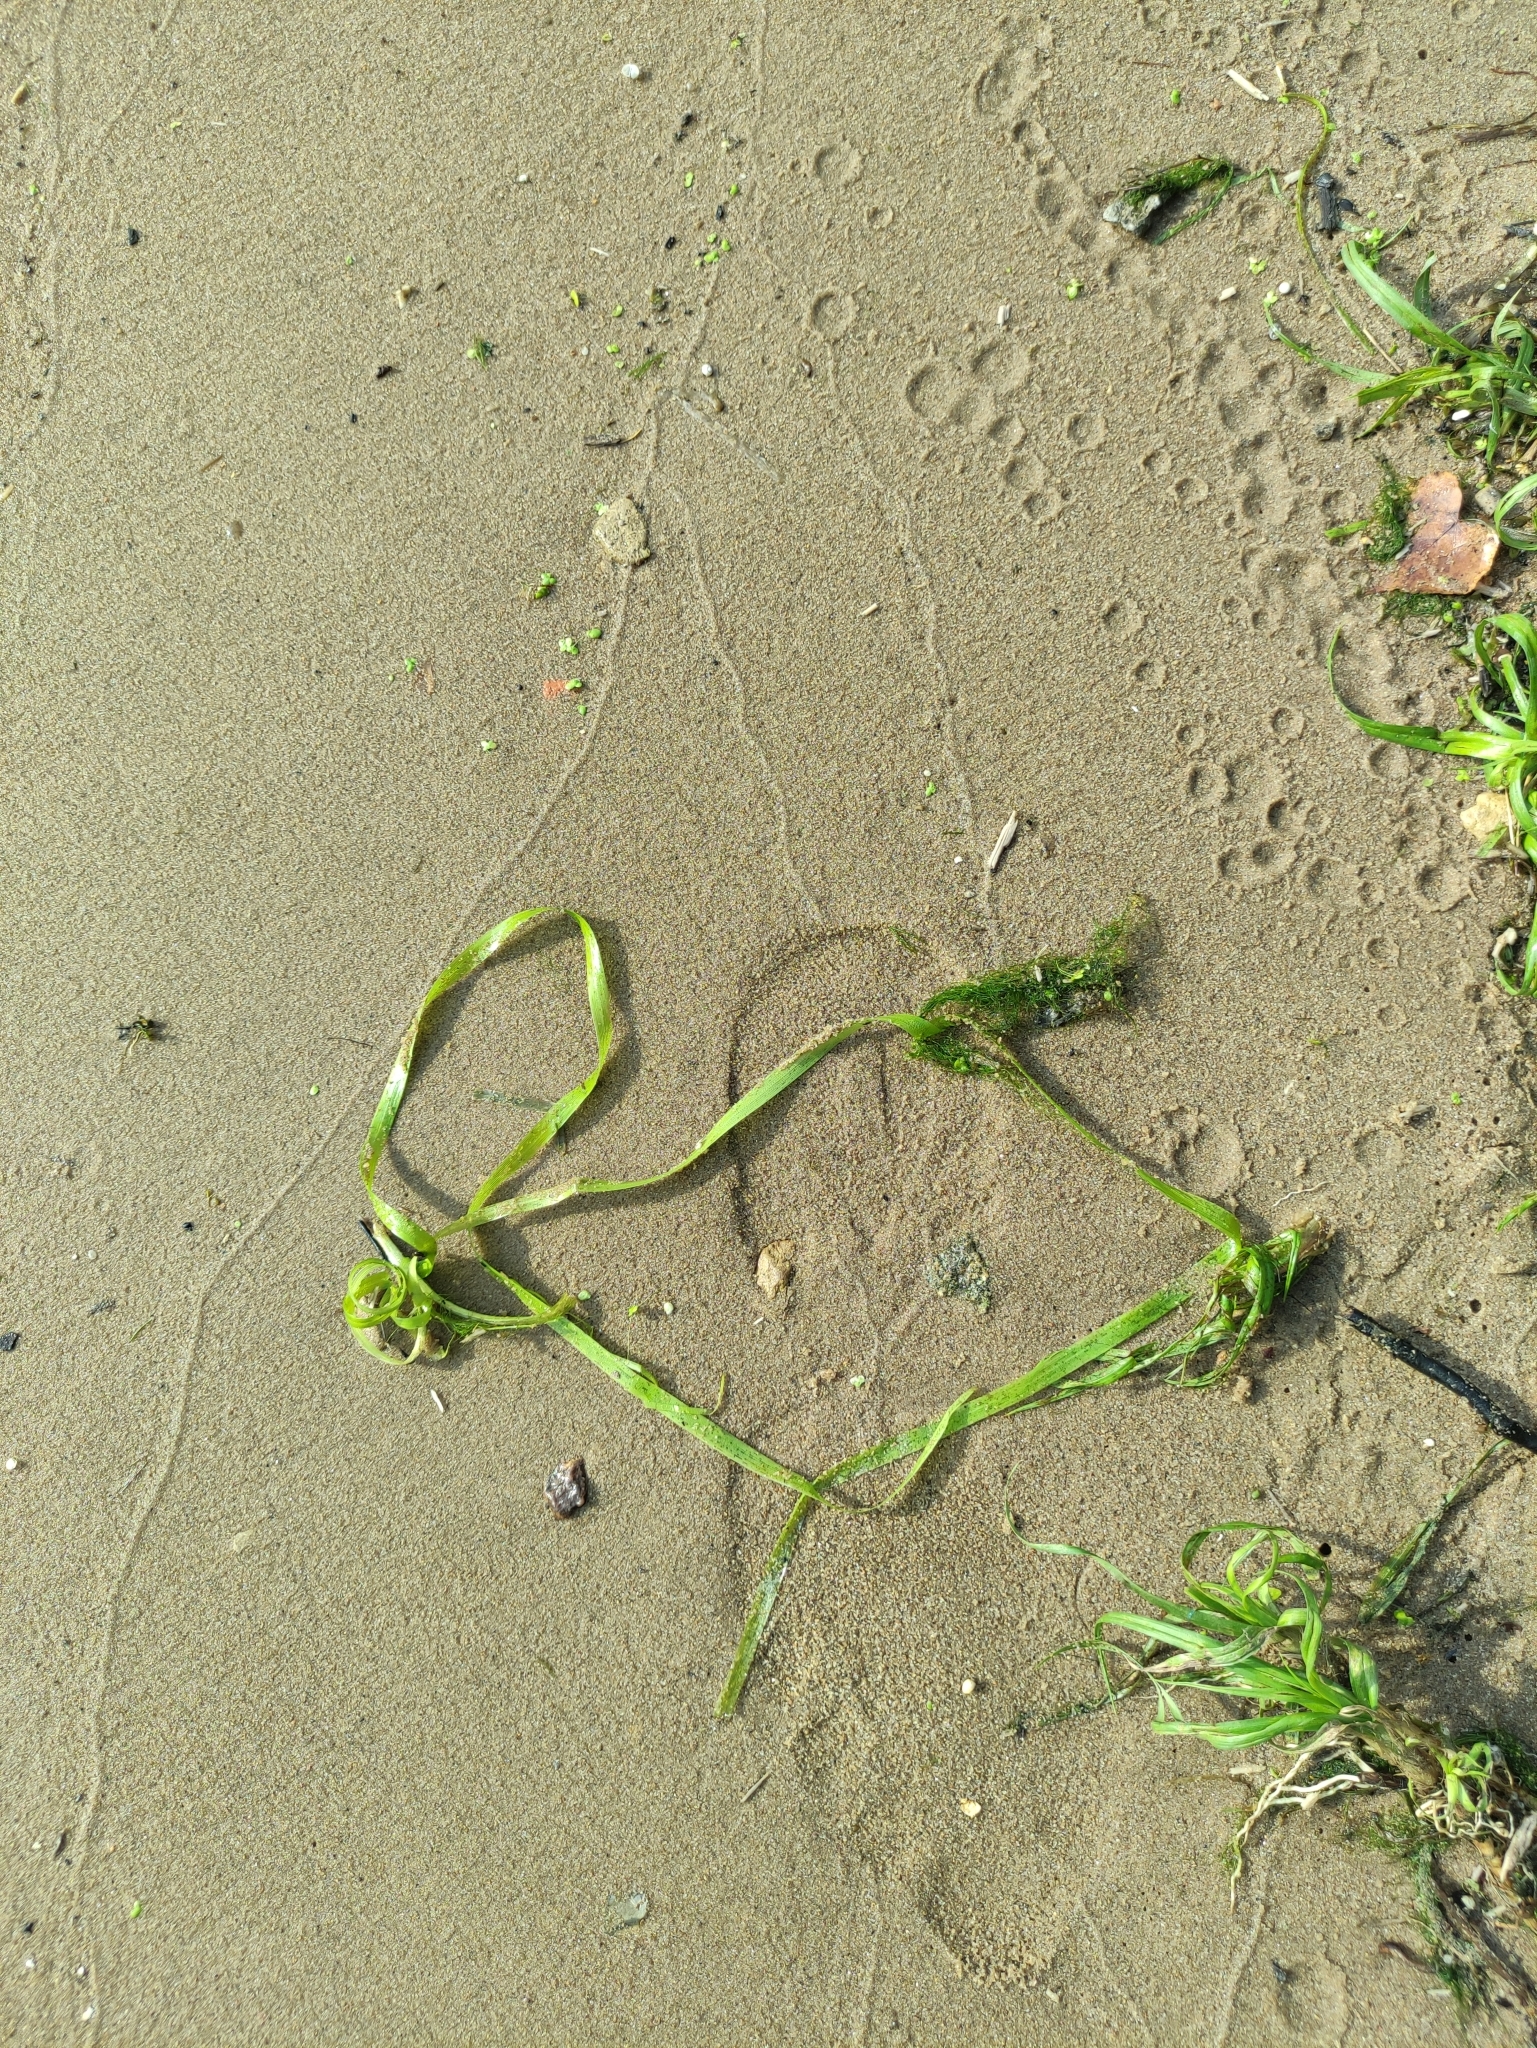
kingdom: Plantae
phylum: Tracheophyta
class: Liliopsida
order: Alismatales
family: Hydrocharitaceae
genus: Vallisneria
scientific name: Vallisneria spiralis
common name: Tapegrass
